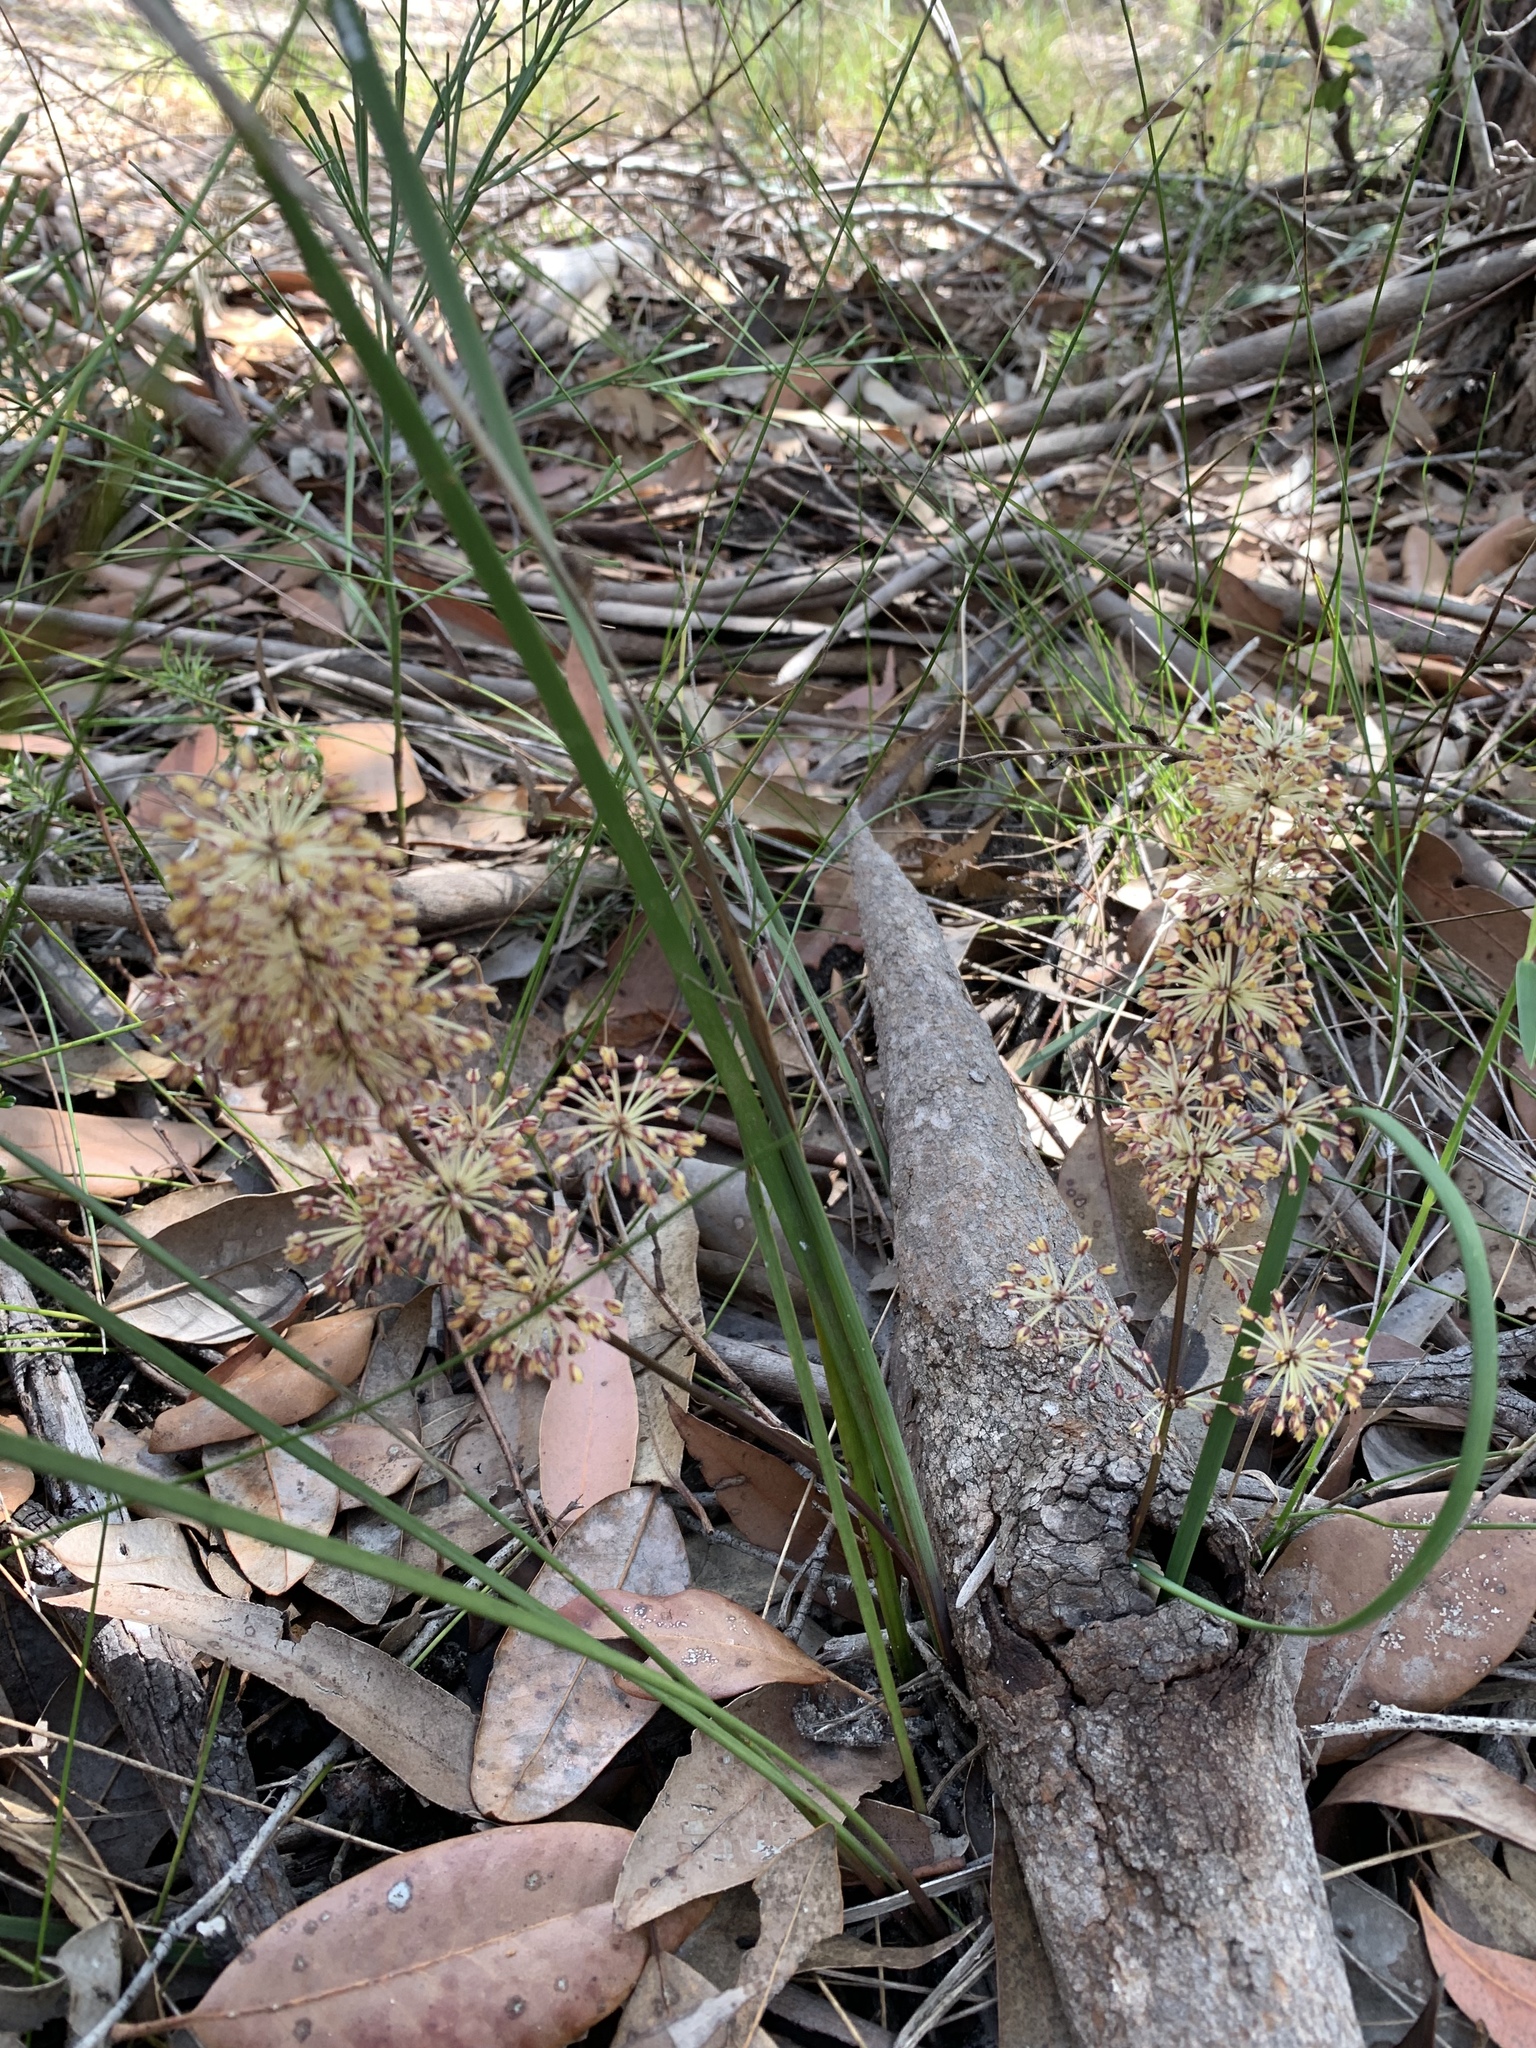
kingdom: Plantae
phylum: Tracheophyta
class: Liliopsida
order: Asparagales
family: Asparagaceae
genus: Lomandra
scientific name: Lomandra multiflora
